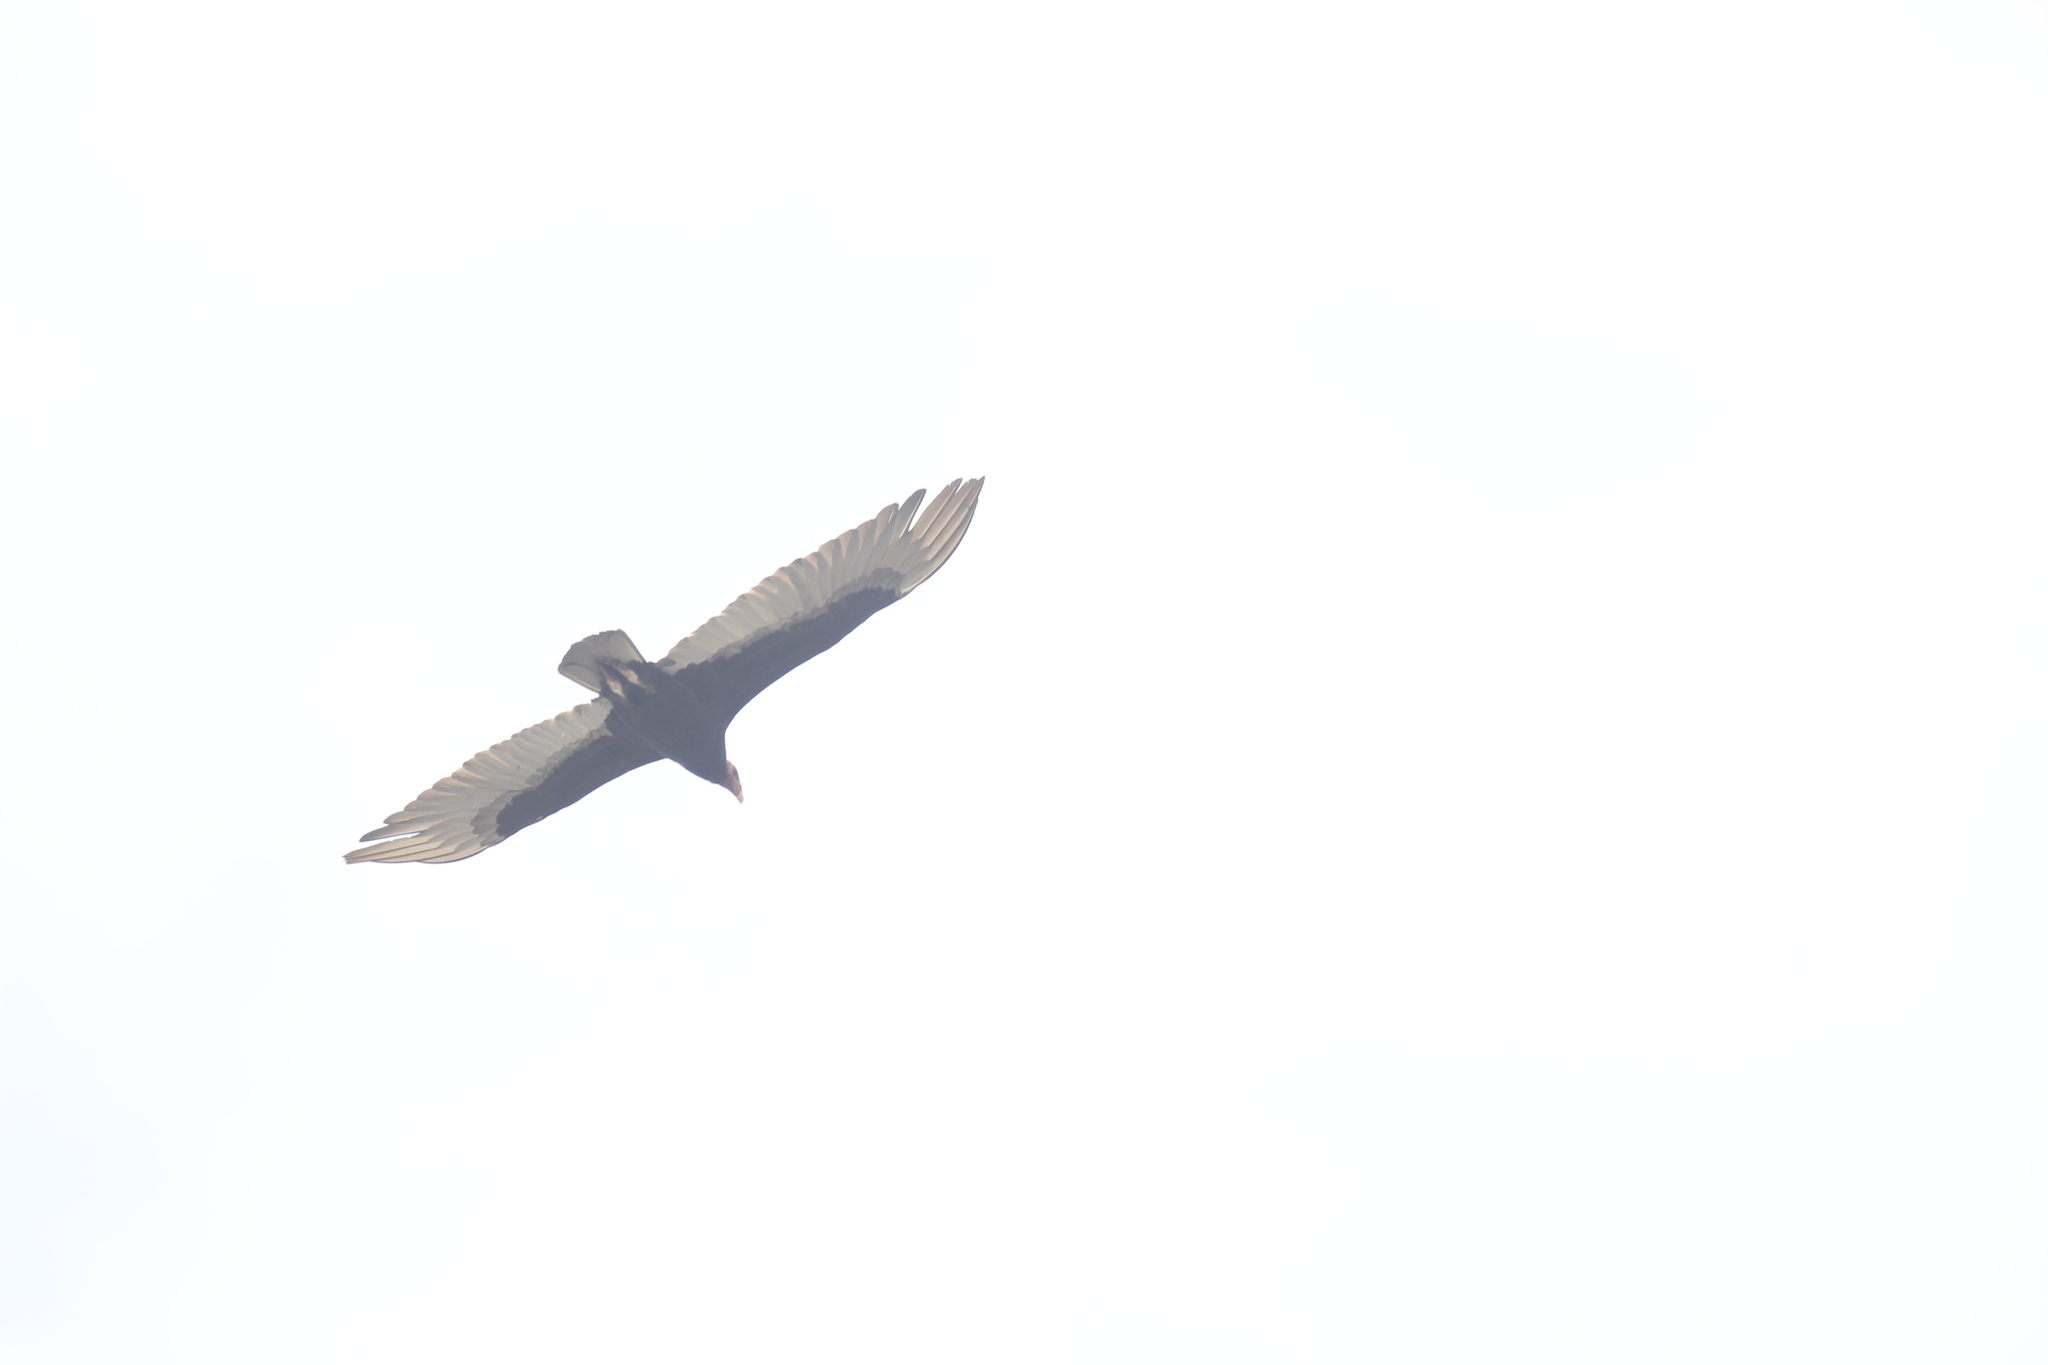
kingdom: Animalia
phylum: Chordata
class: Aves
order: Accipitriformes
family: Cathartidae
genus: Cathartes
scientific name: Cathartes aura
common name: Turkey vulture
